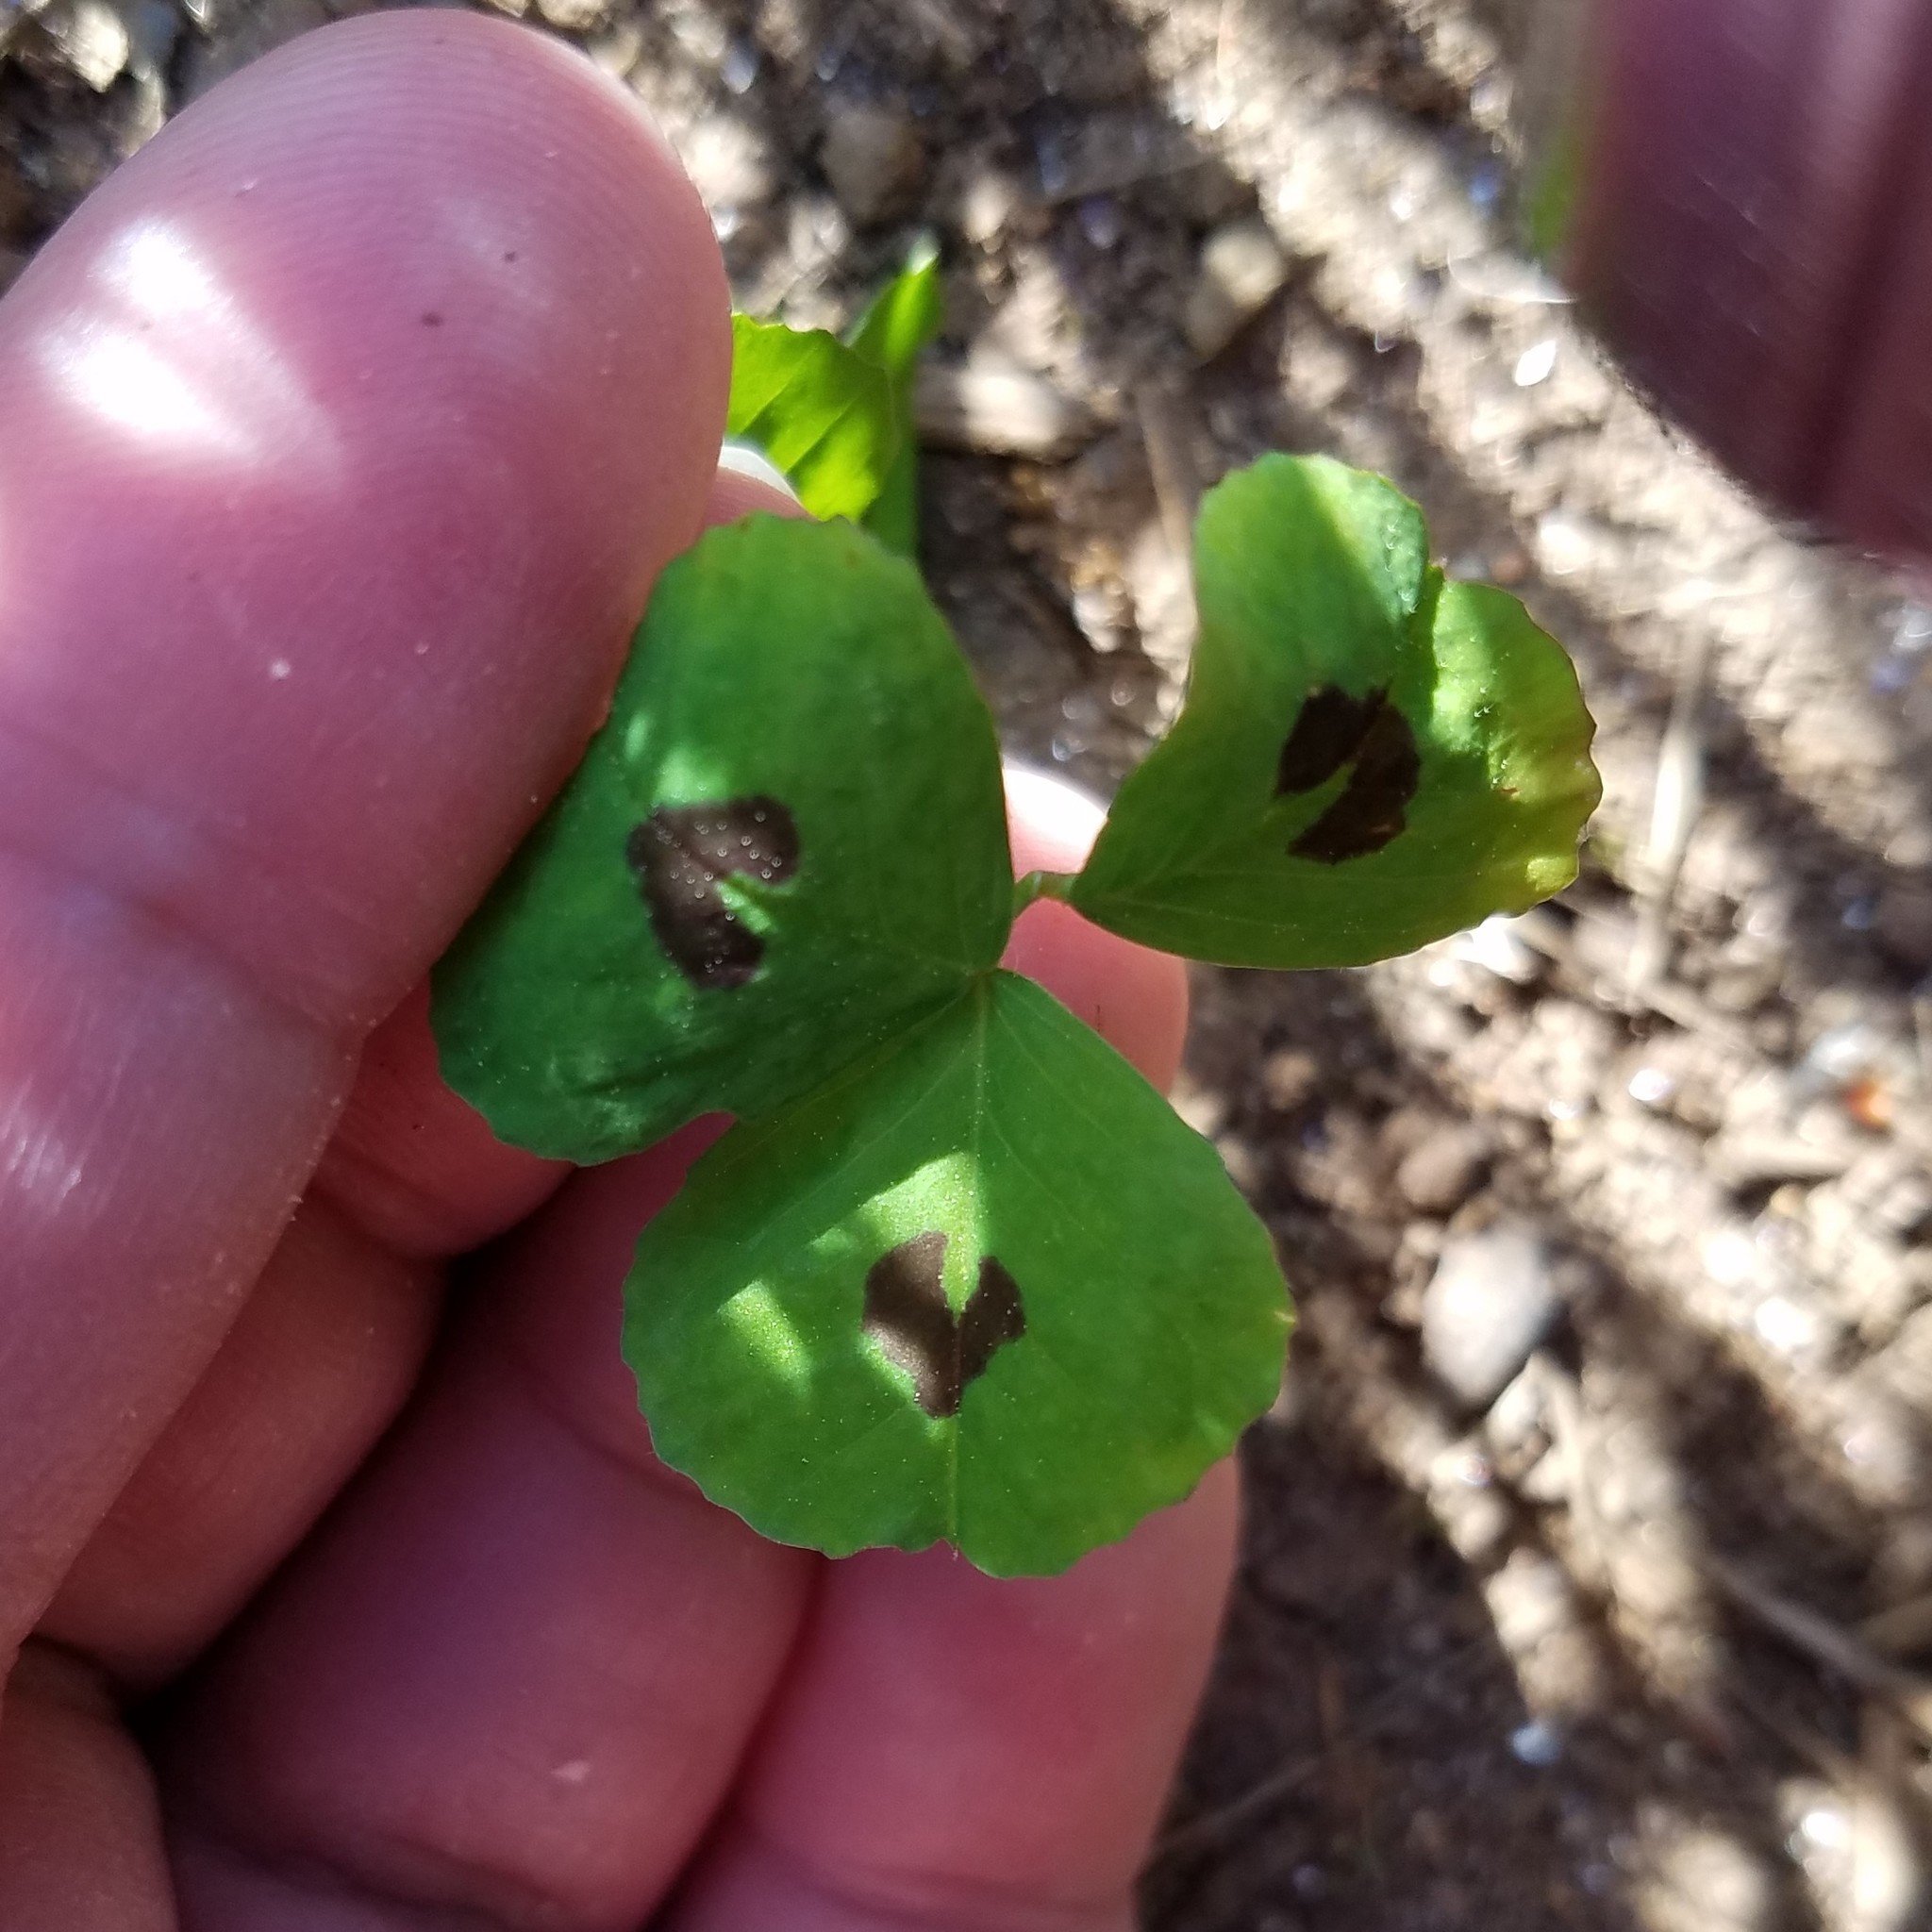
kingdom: Plantae
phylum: Tracheophyta
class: Magnoliopsida
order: Fabales
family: Fabaceae
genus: Medicago
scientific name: Medicago arabica
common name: Spotted medick
